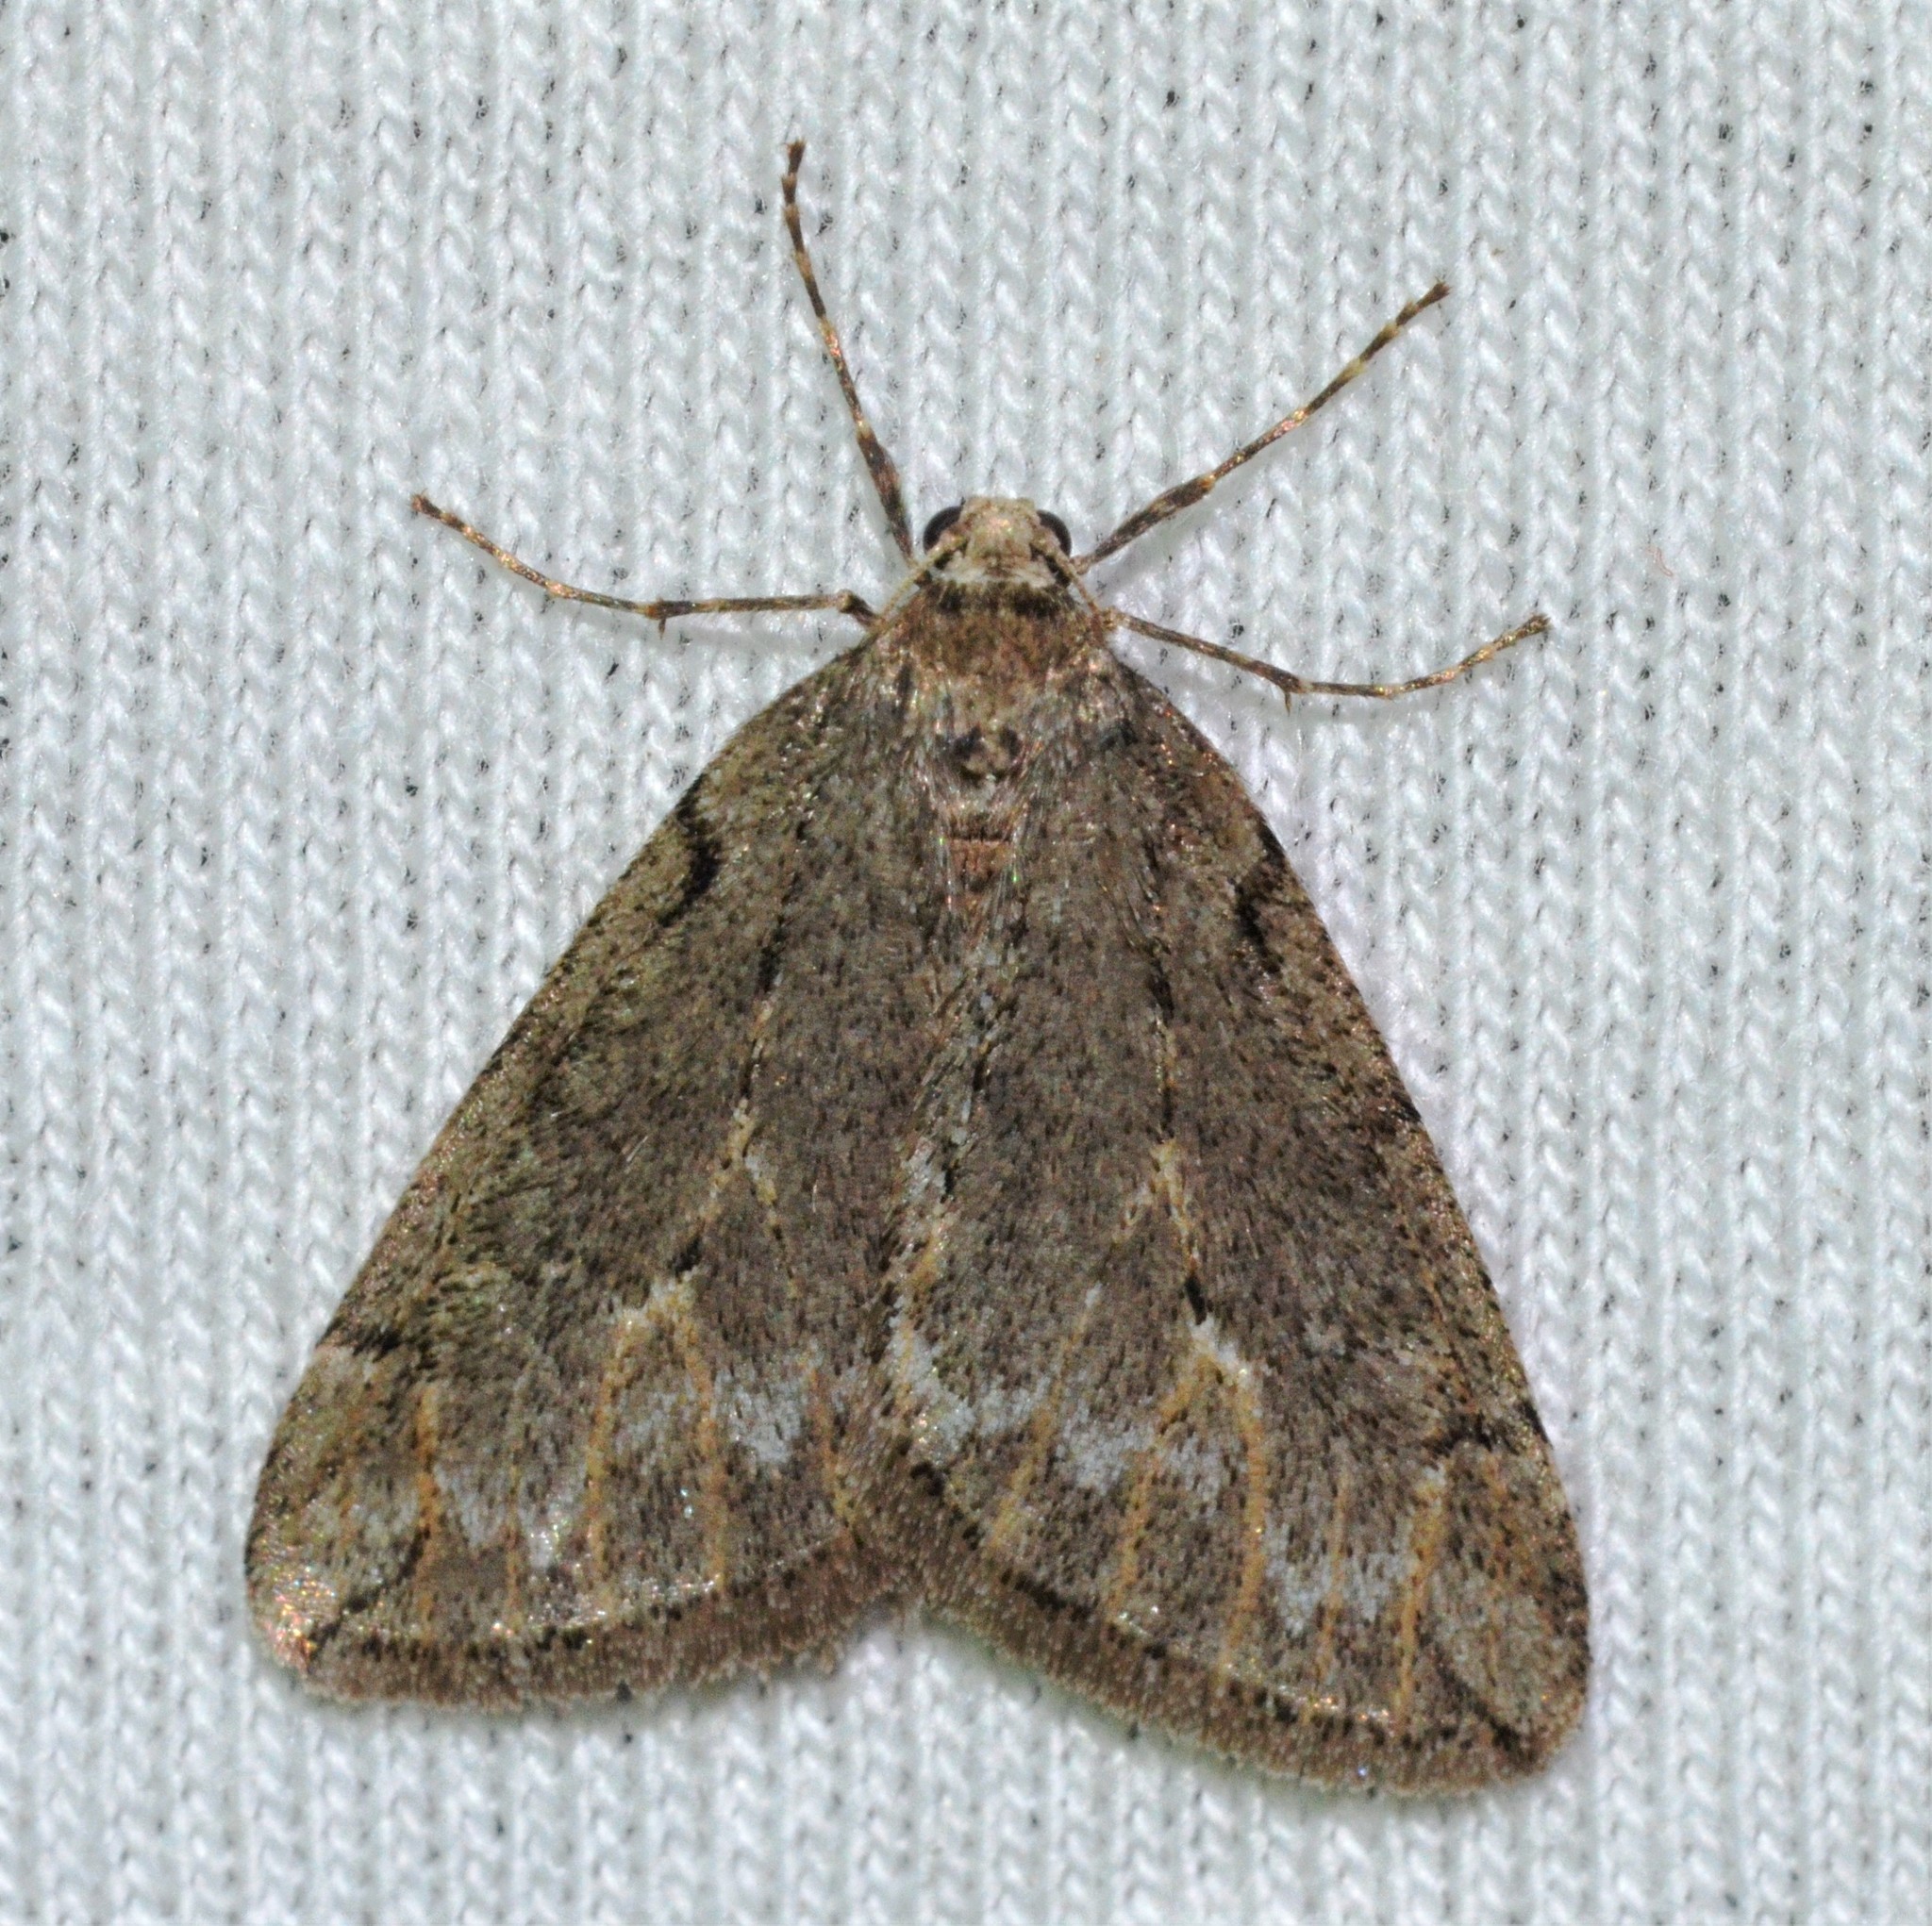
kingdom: Animalia
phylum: Arthropoda
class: Insecta
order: Lepidoptera
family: Geometridae
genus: Paleacrita
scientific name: Paleacrita vernata
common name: Spring cankerworm
